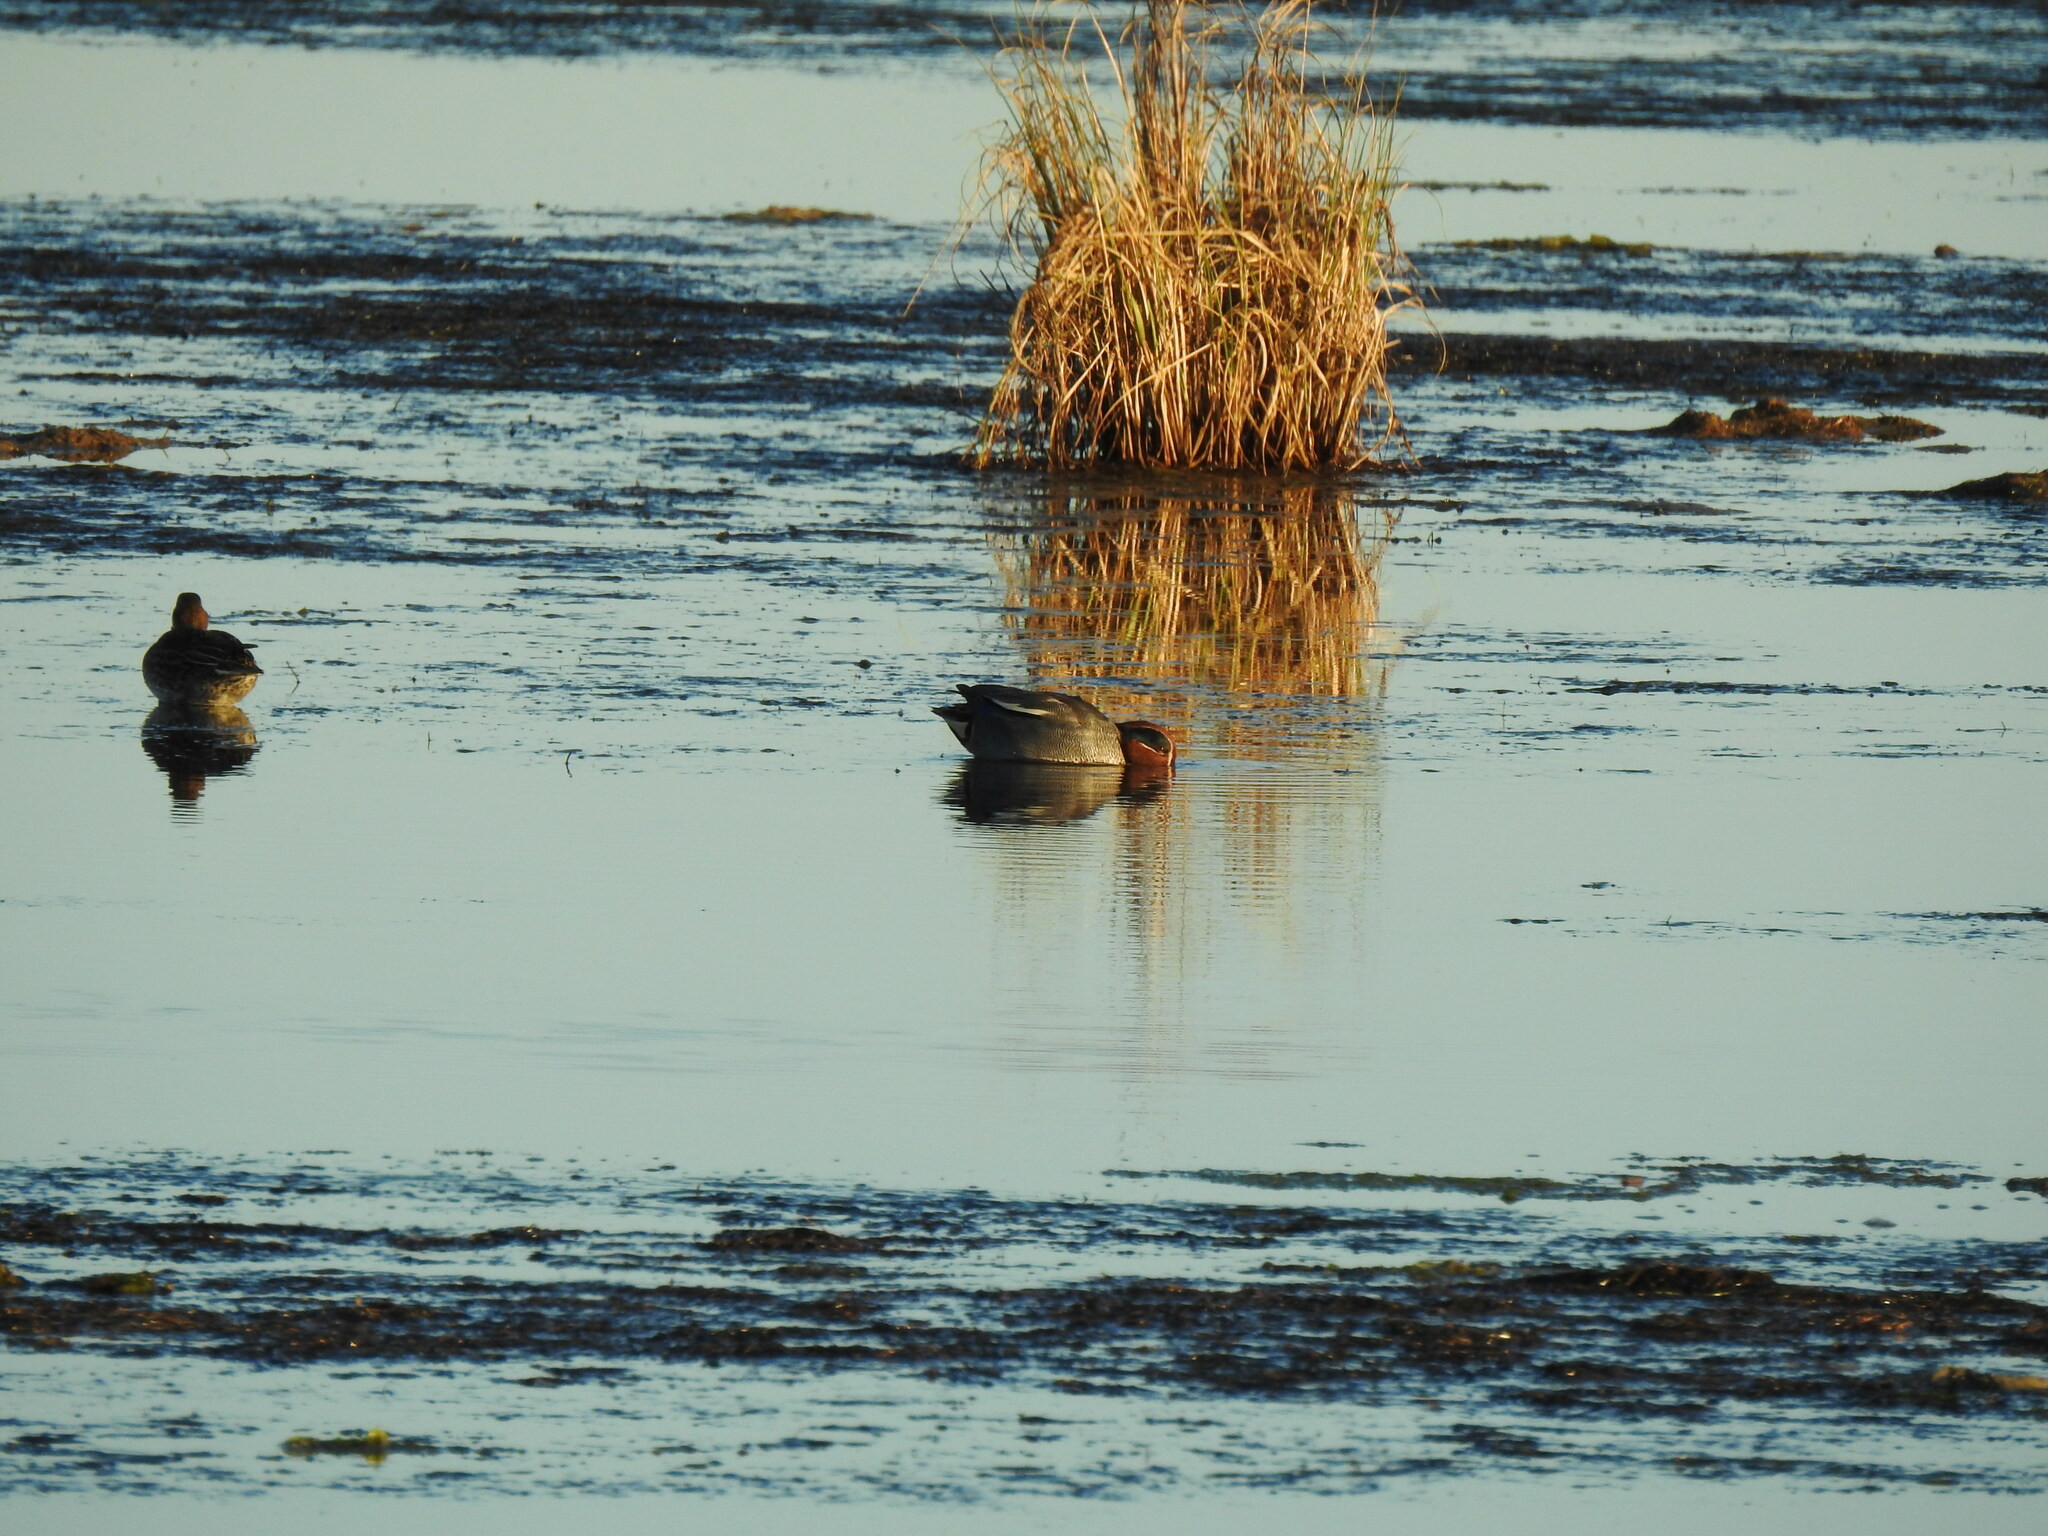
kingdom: Animalia
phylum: Chordata
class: Aves
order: Anseriformes
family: Anatidae
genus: Anas
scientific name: Anas crecca
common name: Eurasian teal
